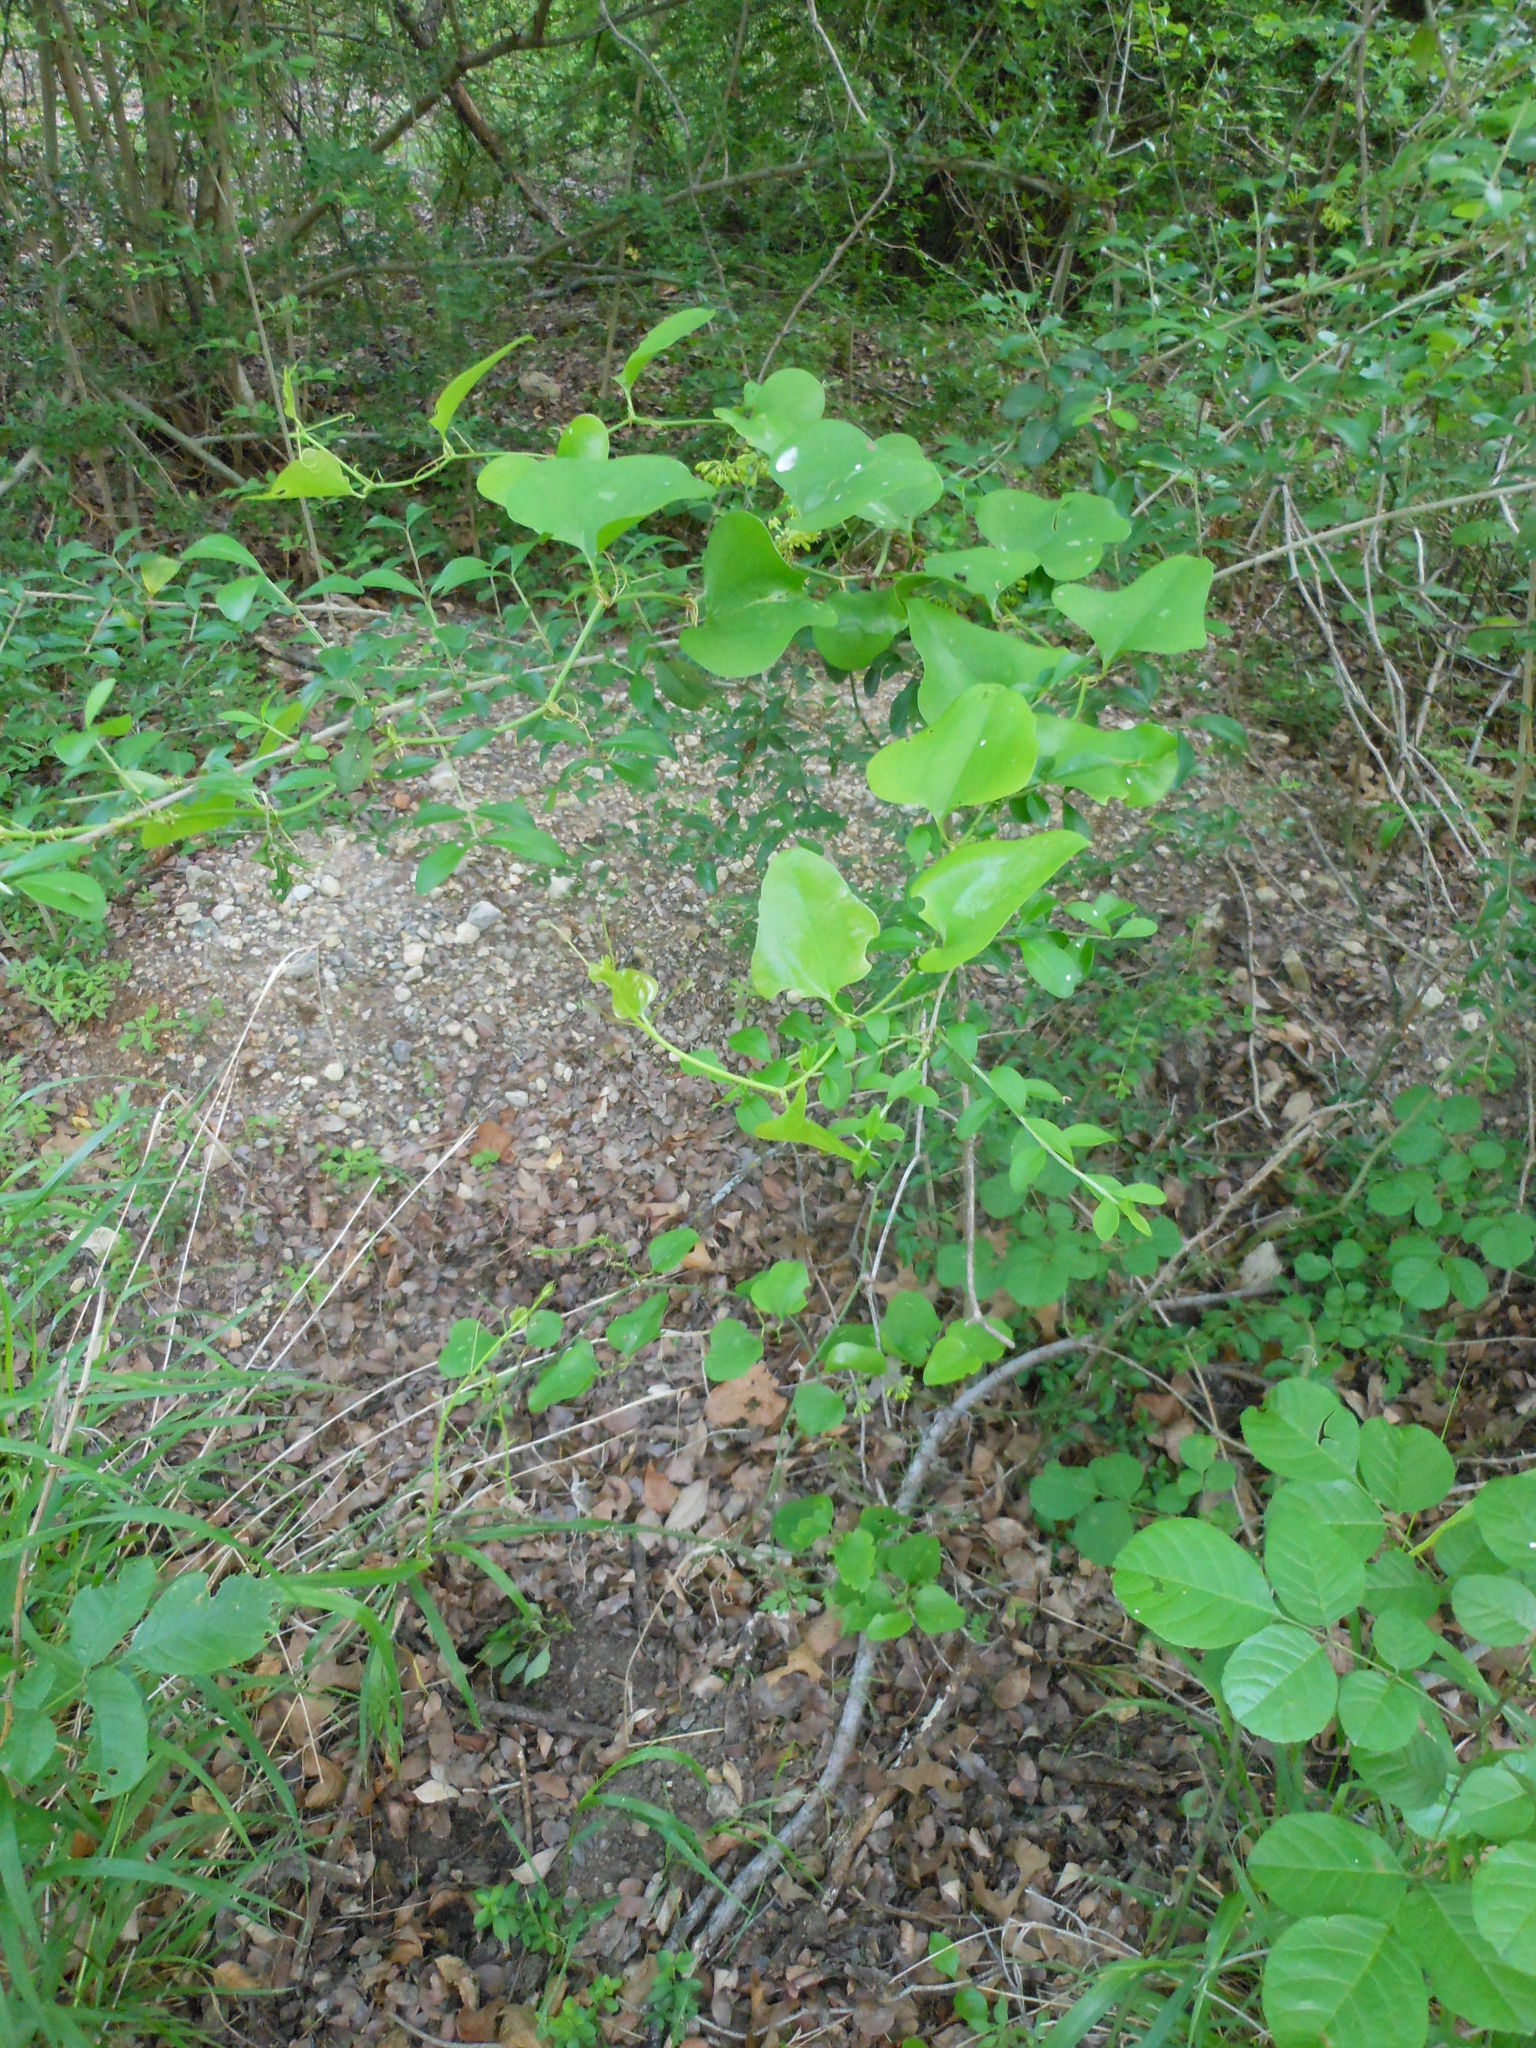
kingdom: Plantae
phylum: Tracheophyta
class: Liliopsida
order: Liliales
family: Smilacaceae
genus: Smilax
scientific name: Smilax bona-nox
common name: Catbrier
